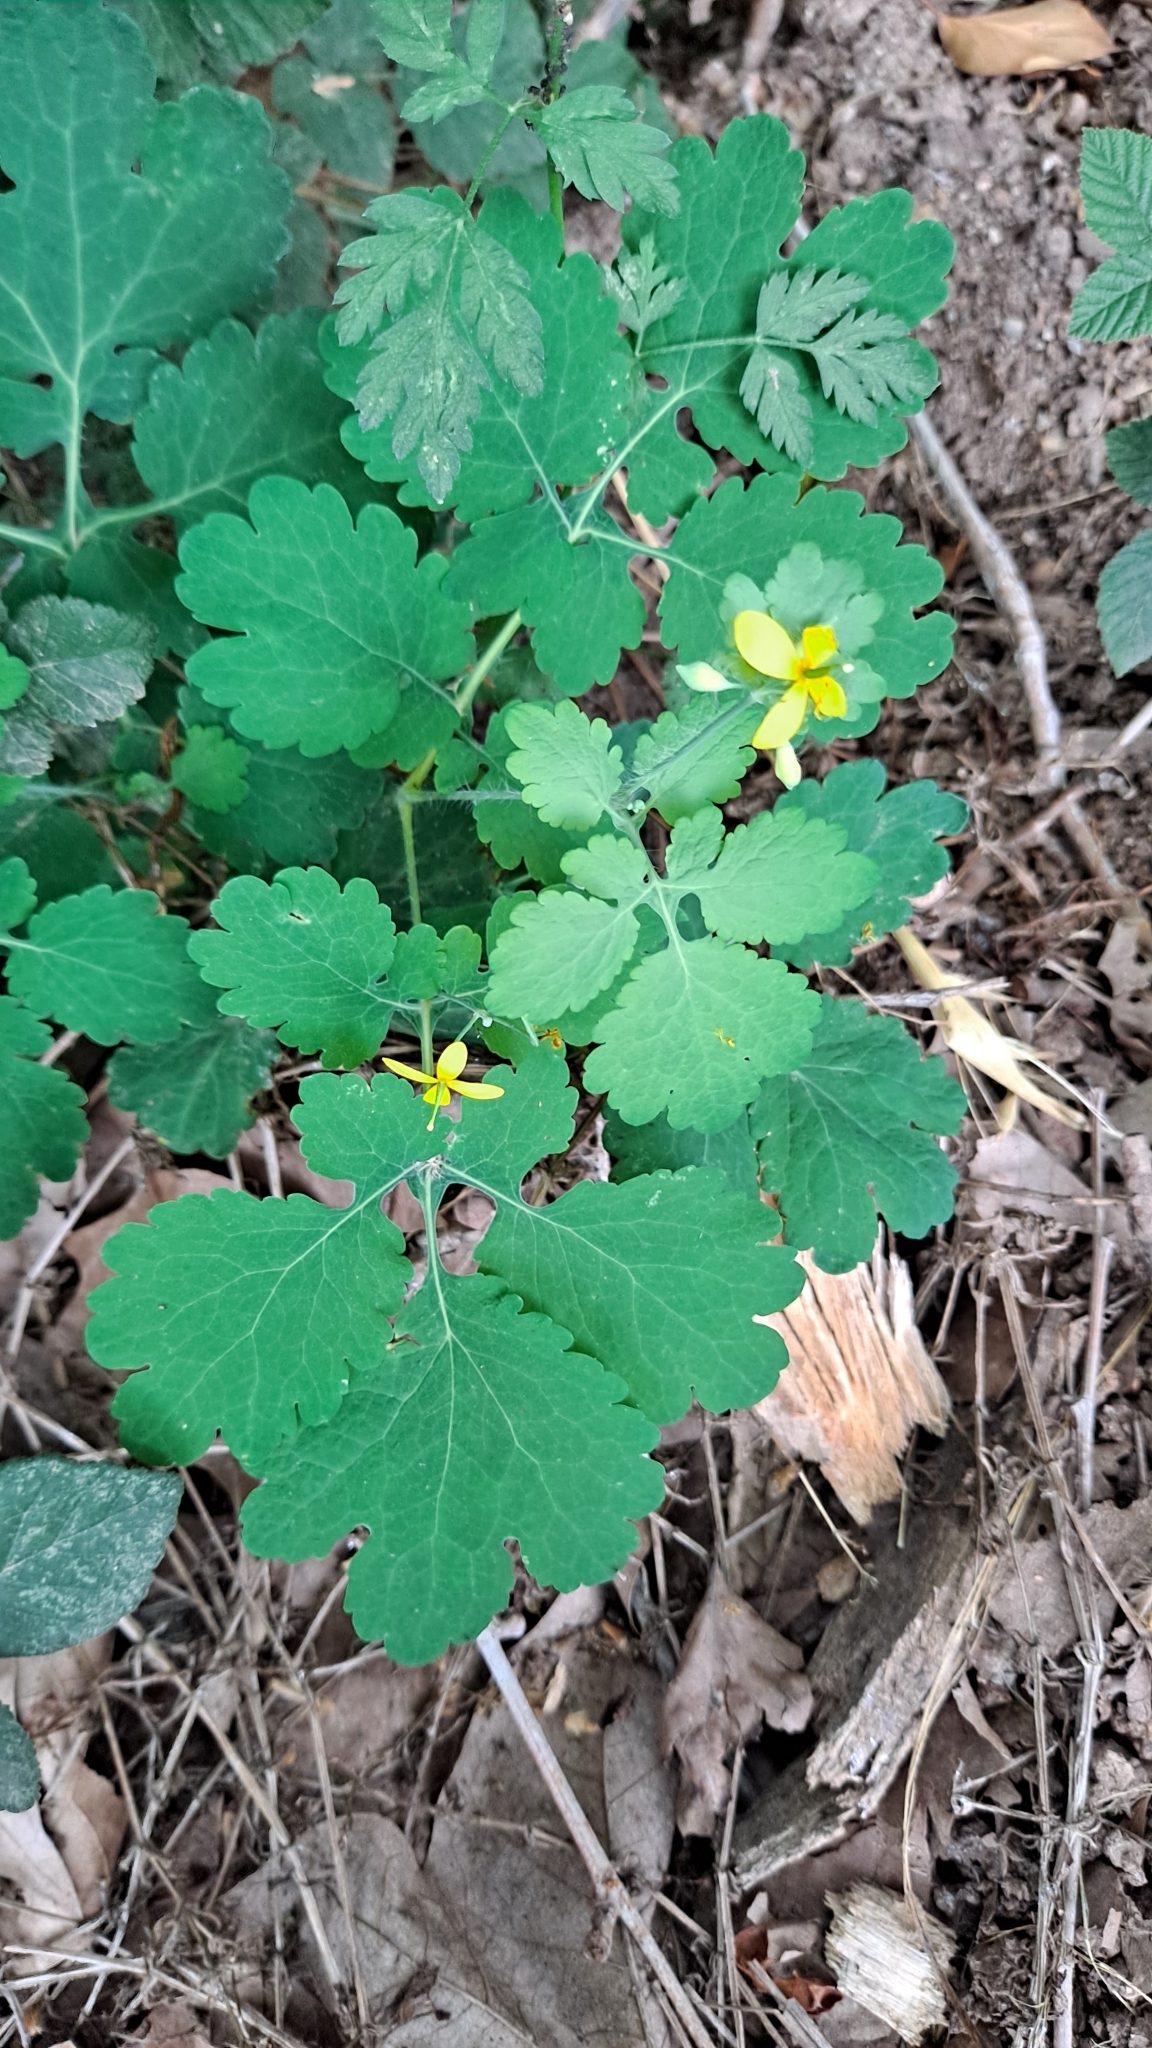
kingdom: Plantae
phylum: Tracheophyta
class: Magnoliopsida
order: Ranunculales
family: Papaveraceae
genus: Chelidonium
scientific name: Chelidonium majus
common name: Greater celandine
